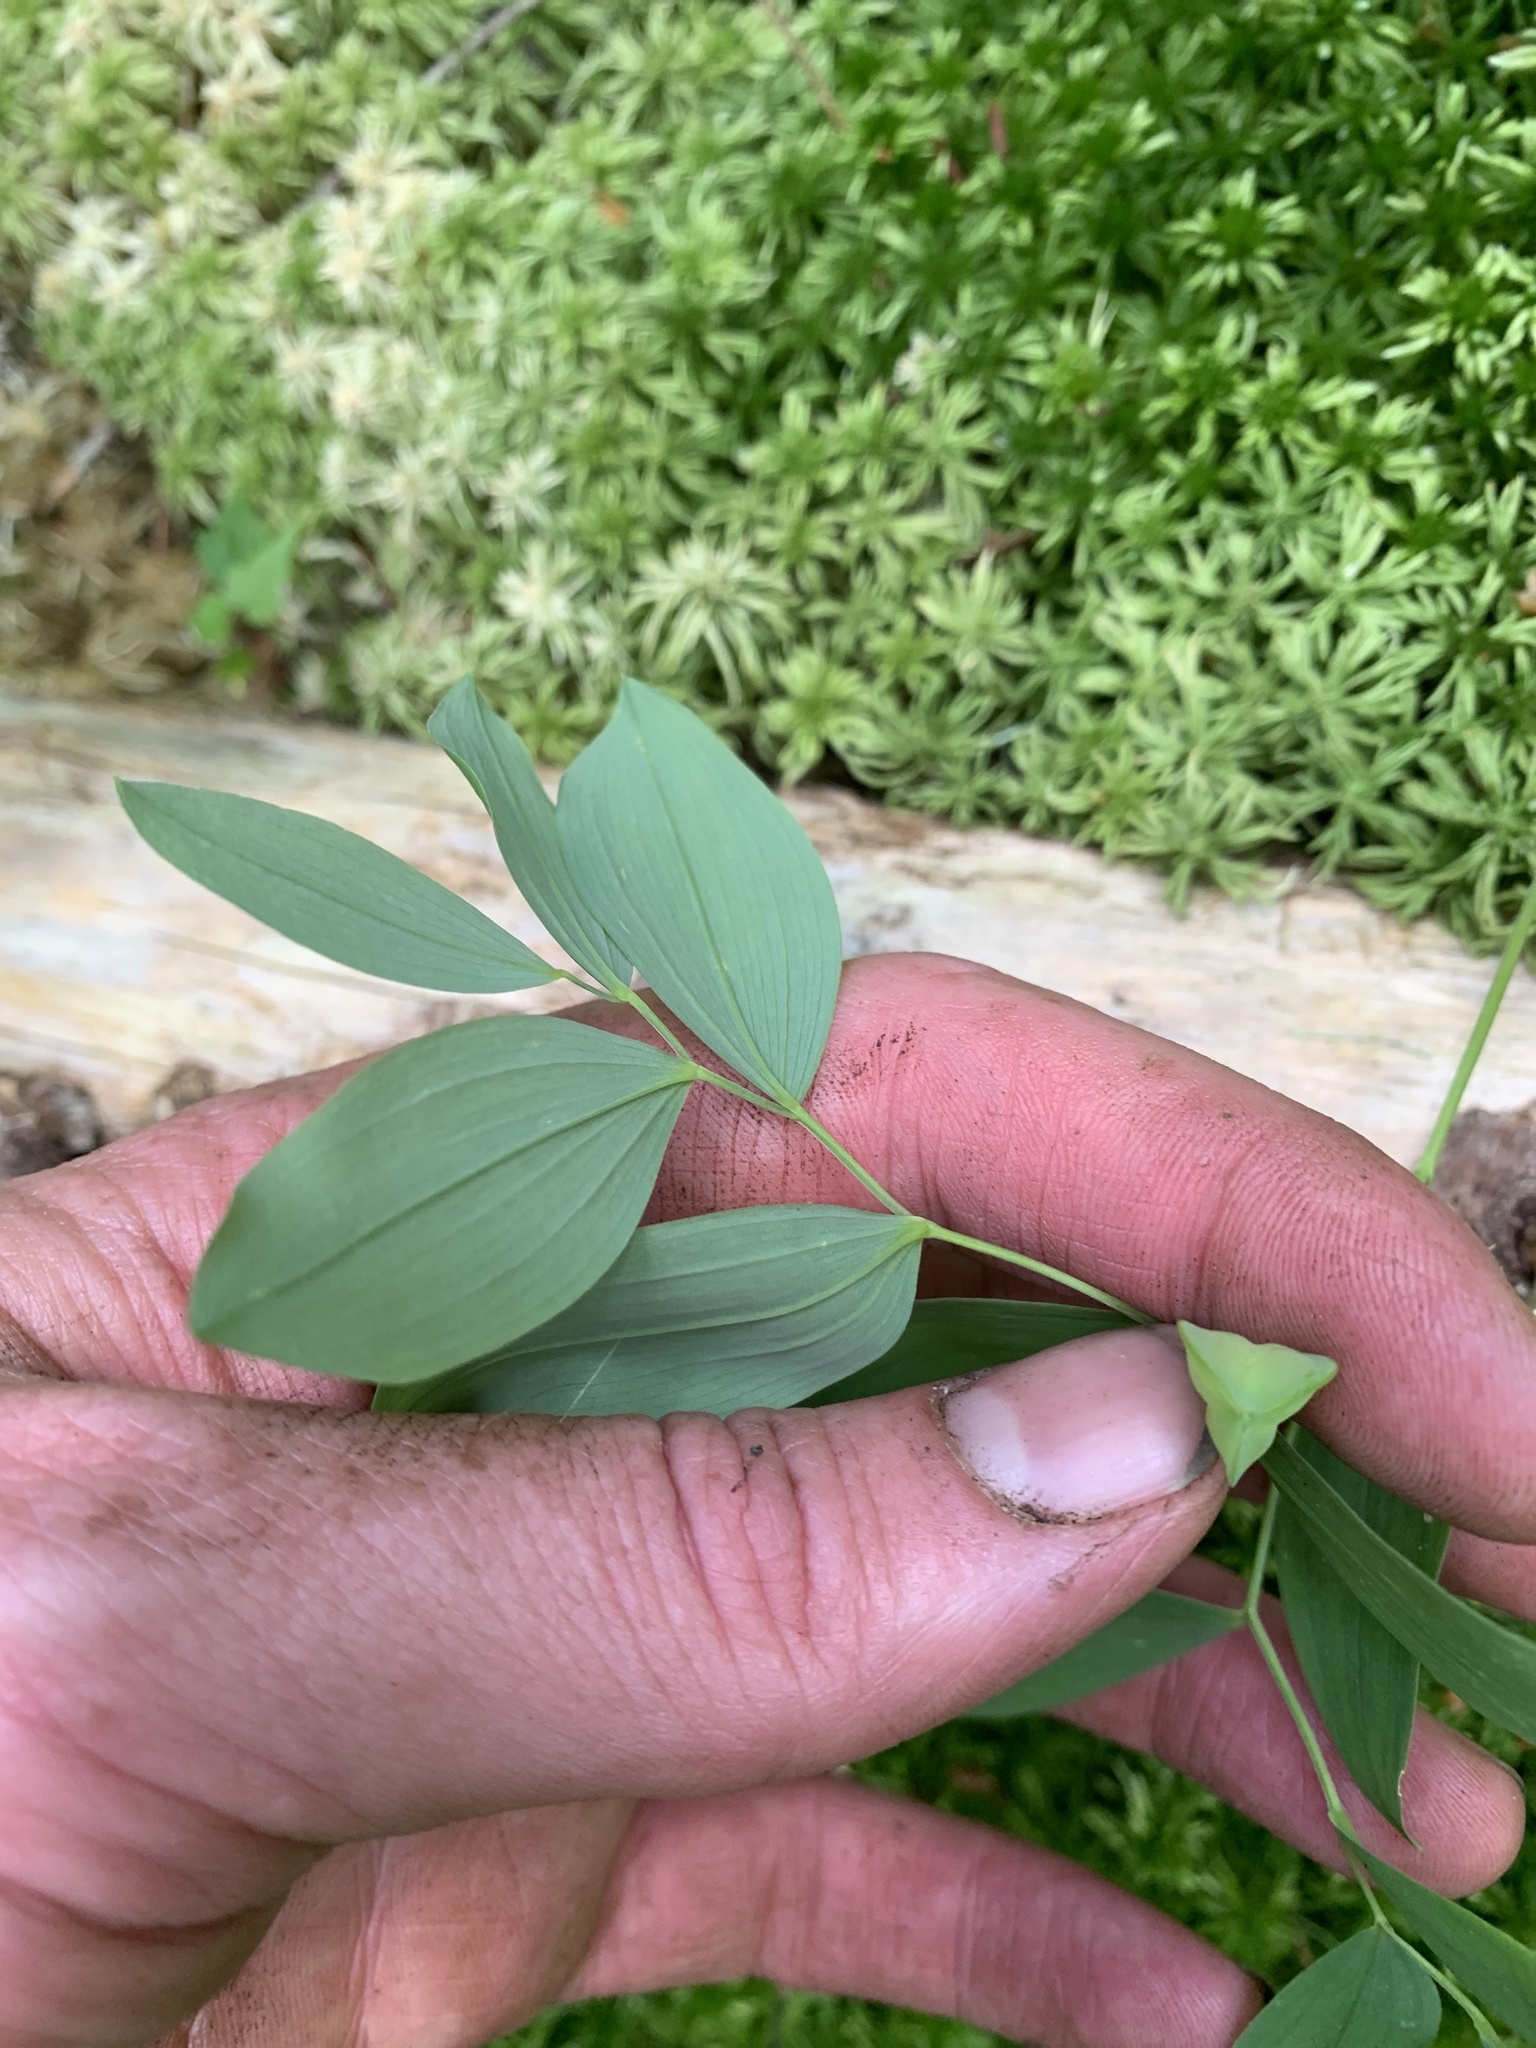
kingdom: Plantae
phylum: Tracheophyta
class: Liliopsida
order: Liliales
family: Colchicaceae
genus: Uvularia
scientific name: Uvularia sessilifolia
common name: Straw-lily
